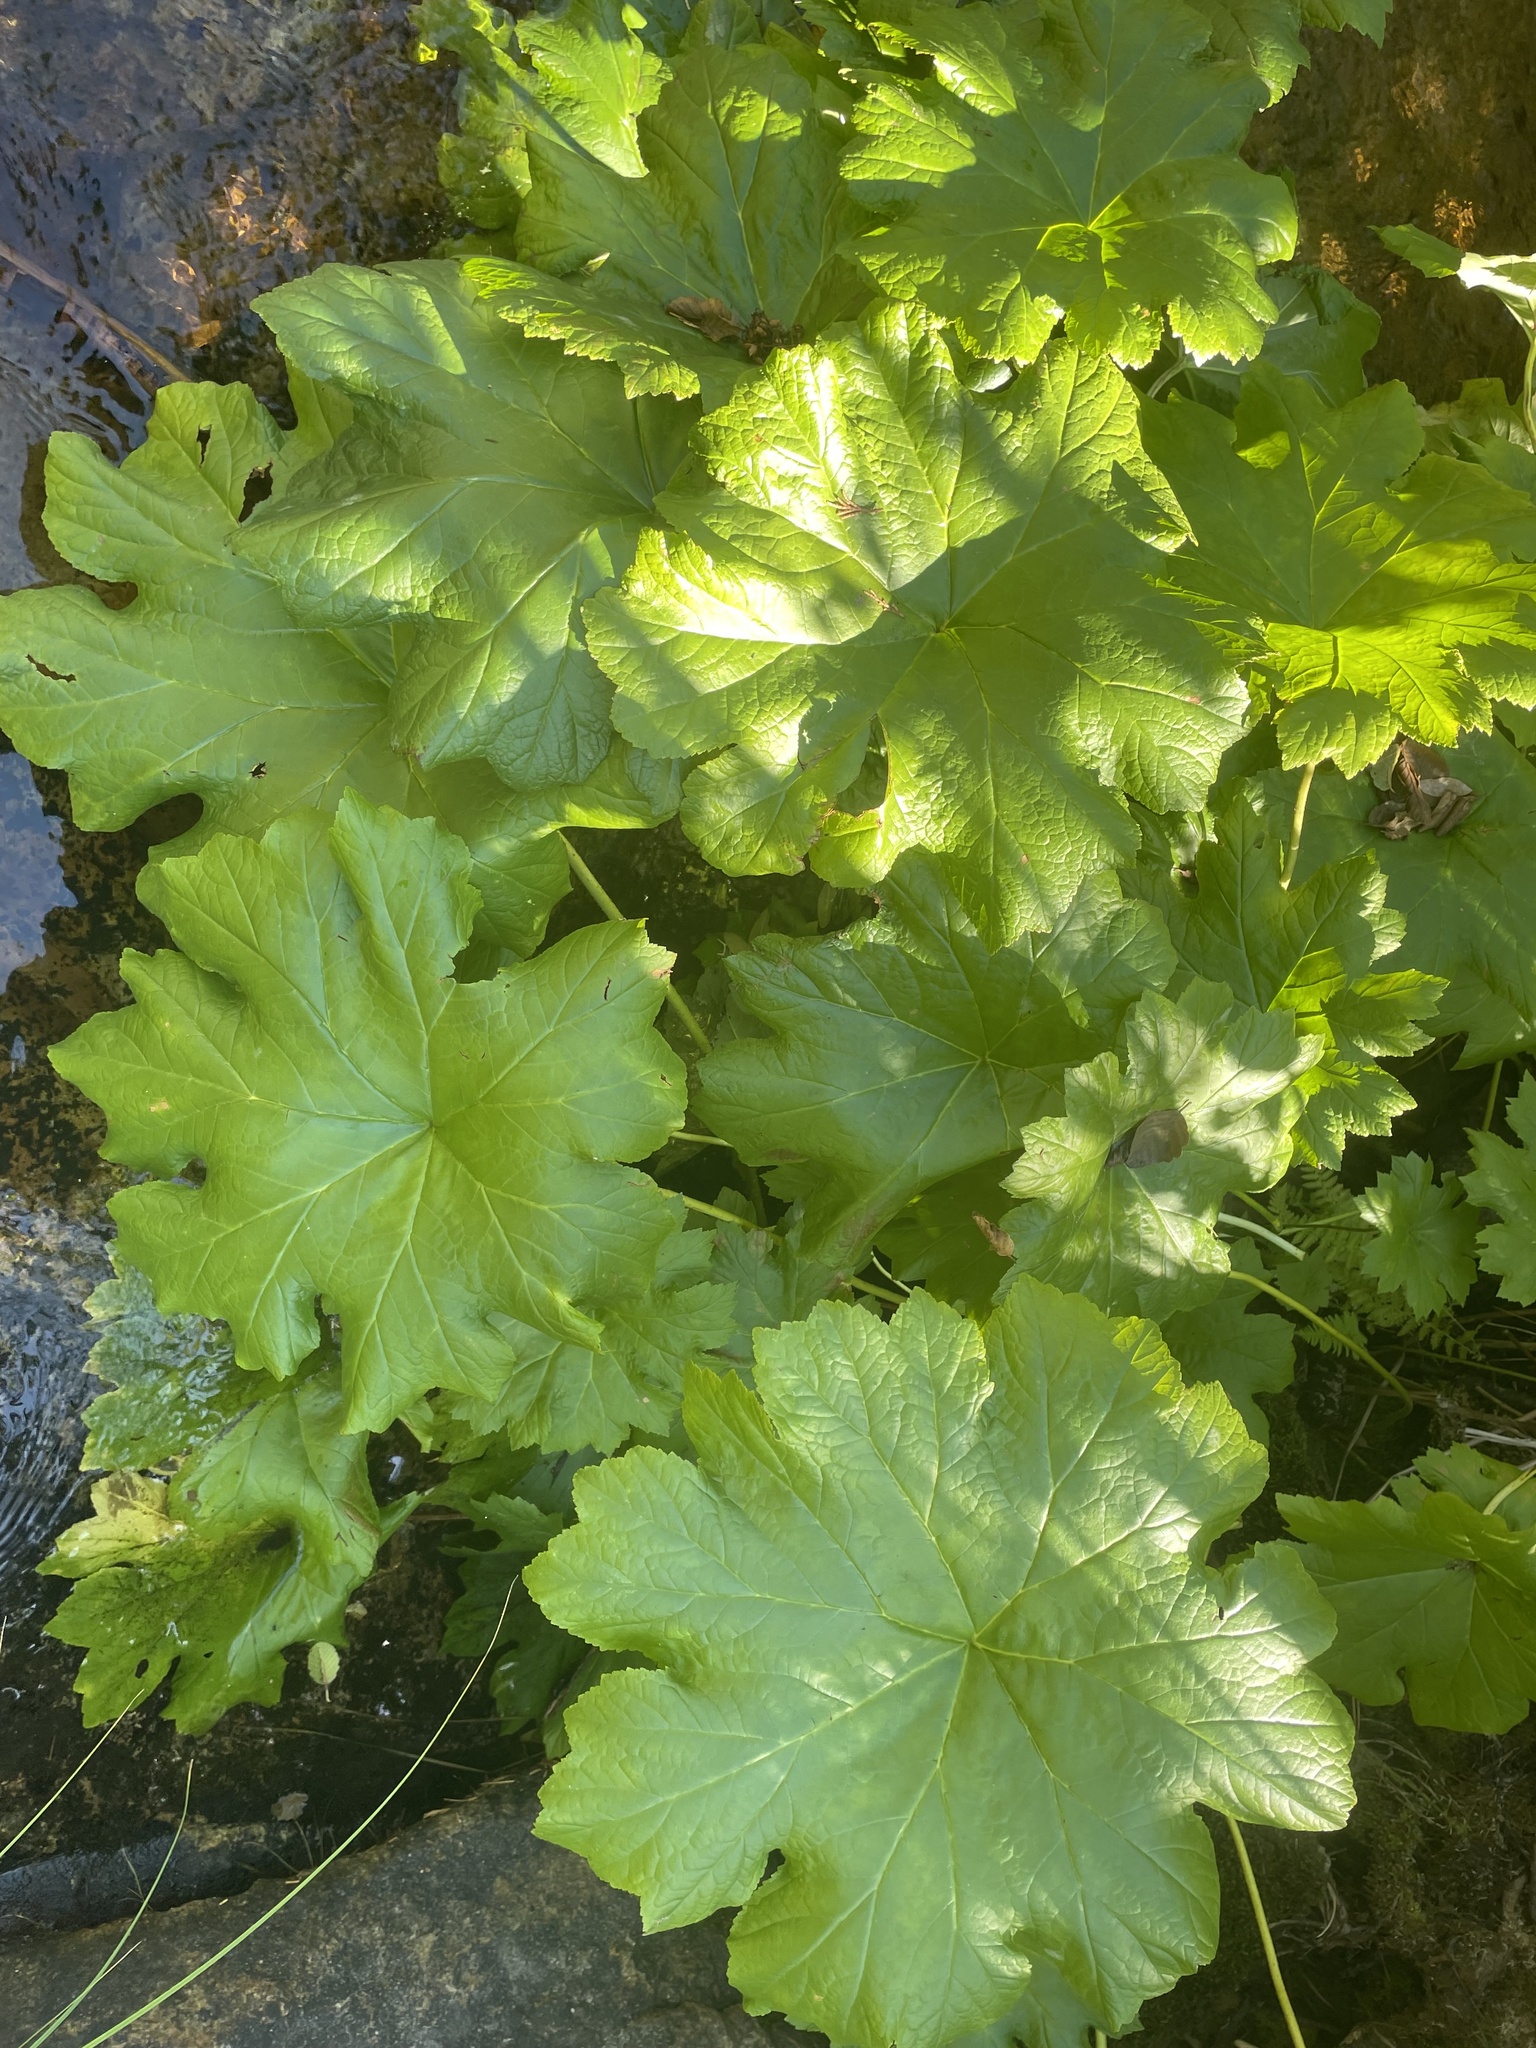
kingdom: Plantae
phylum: Tracheophyta
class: Magnoliopsida
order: Saxifragales
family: Saxifragaceae
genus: Darmera
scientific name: Darmera peltata
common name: Indian-rhubarb
